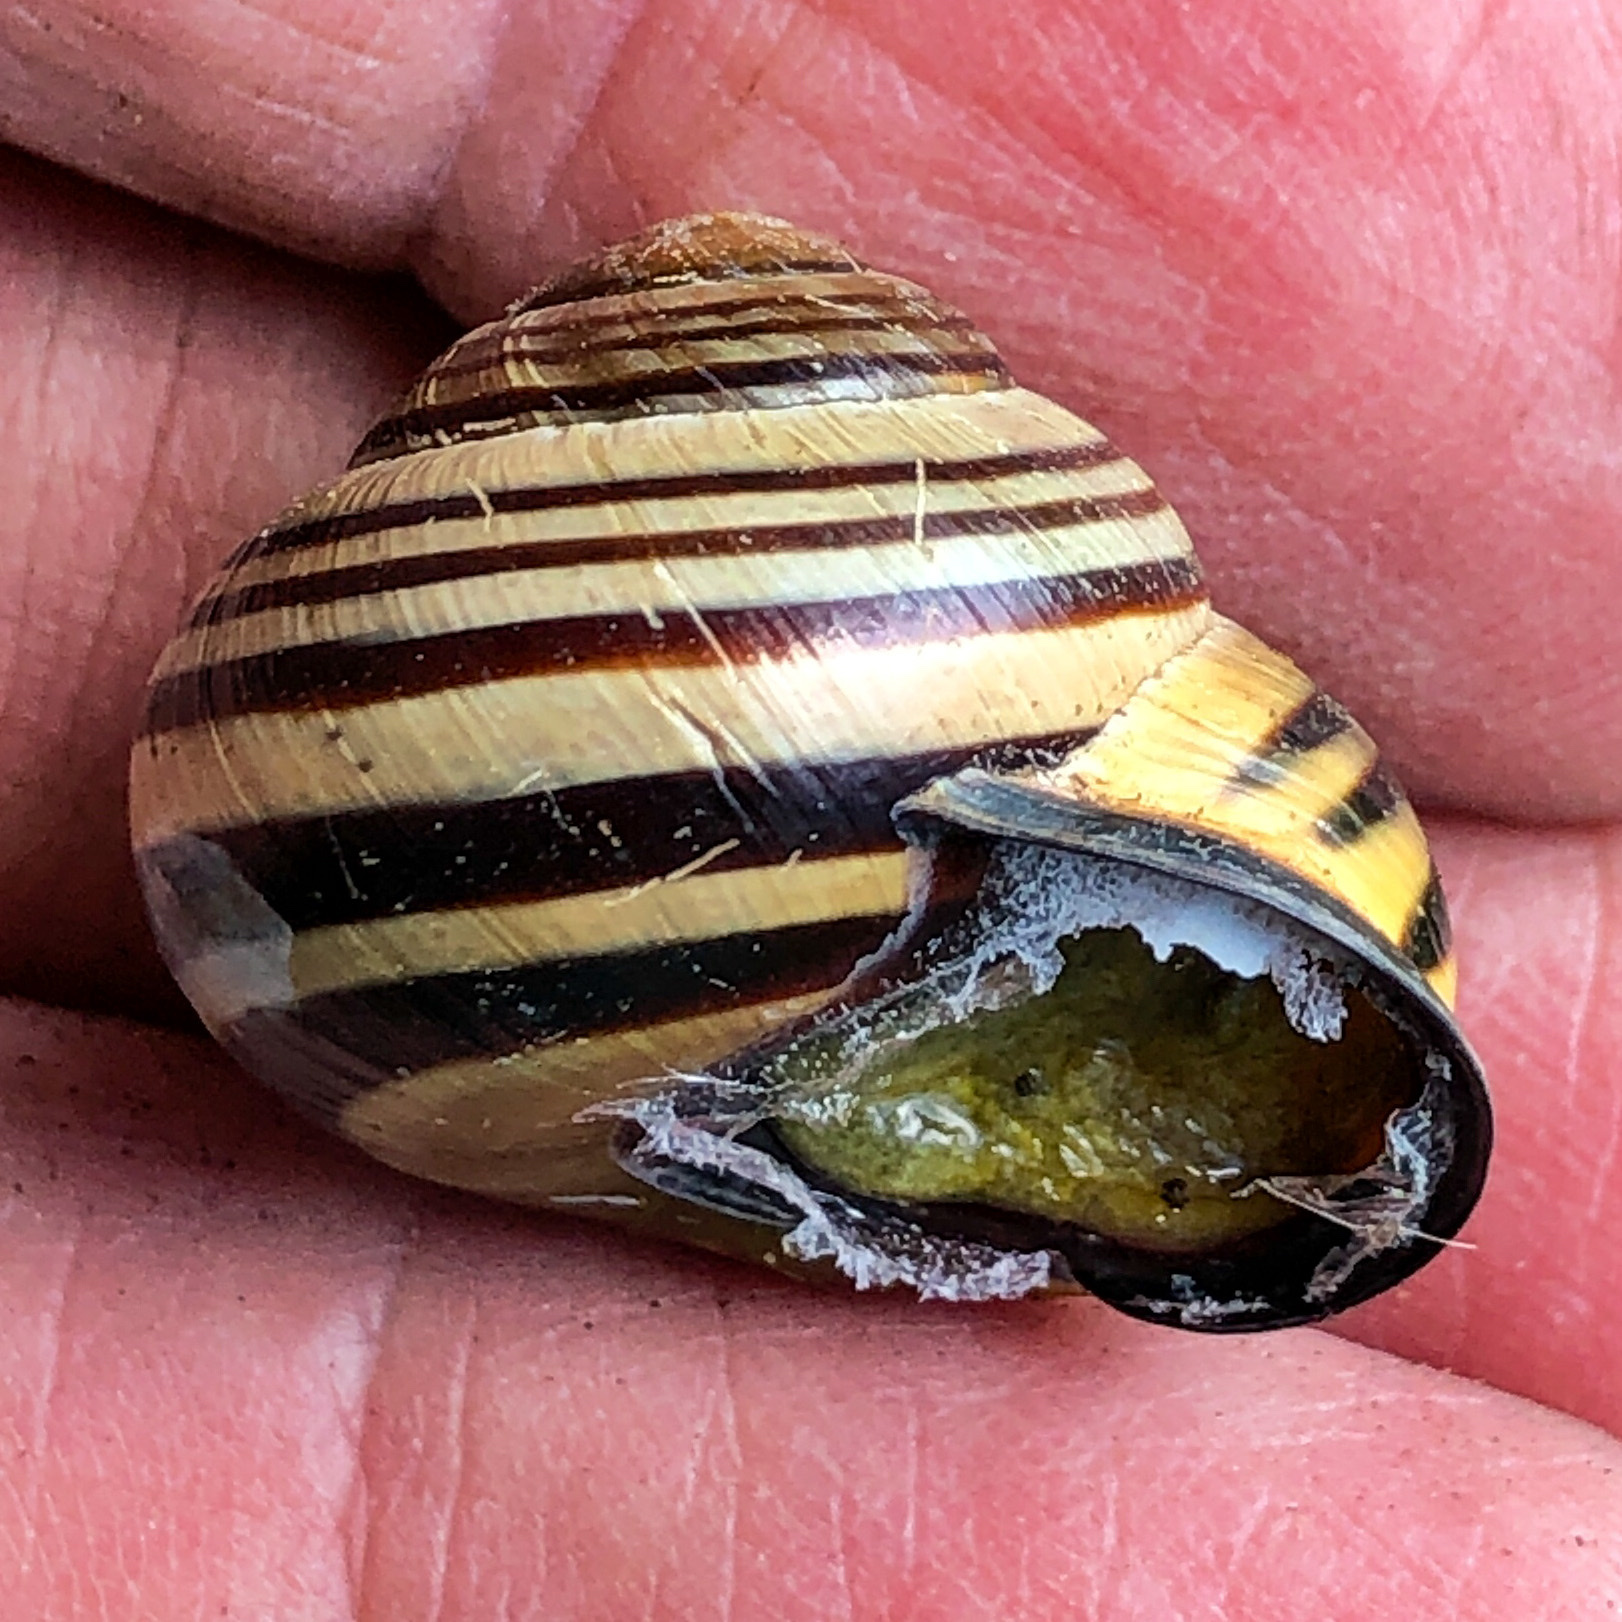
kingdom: Animalia
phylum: Mollusca
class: Gastropoda
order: Stylommatophora
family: Helicidae
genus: Cepaea
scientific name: Cepaea nemoralis
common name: Grovesnail
